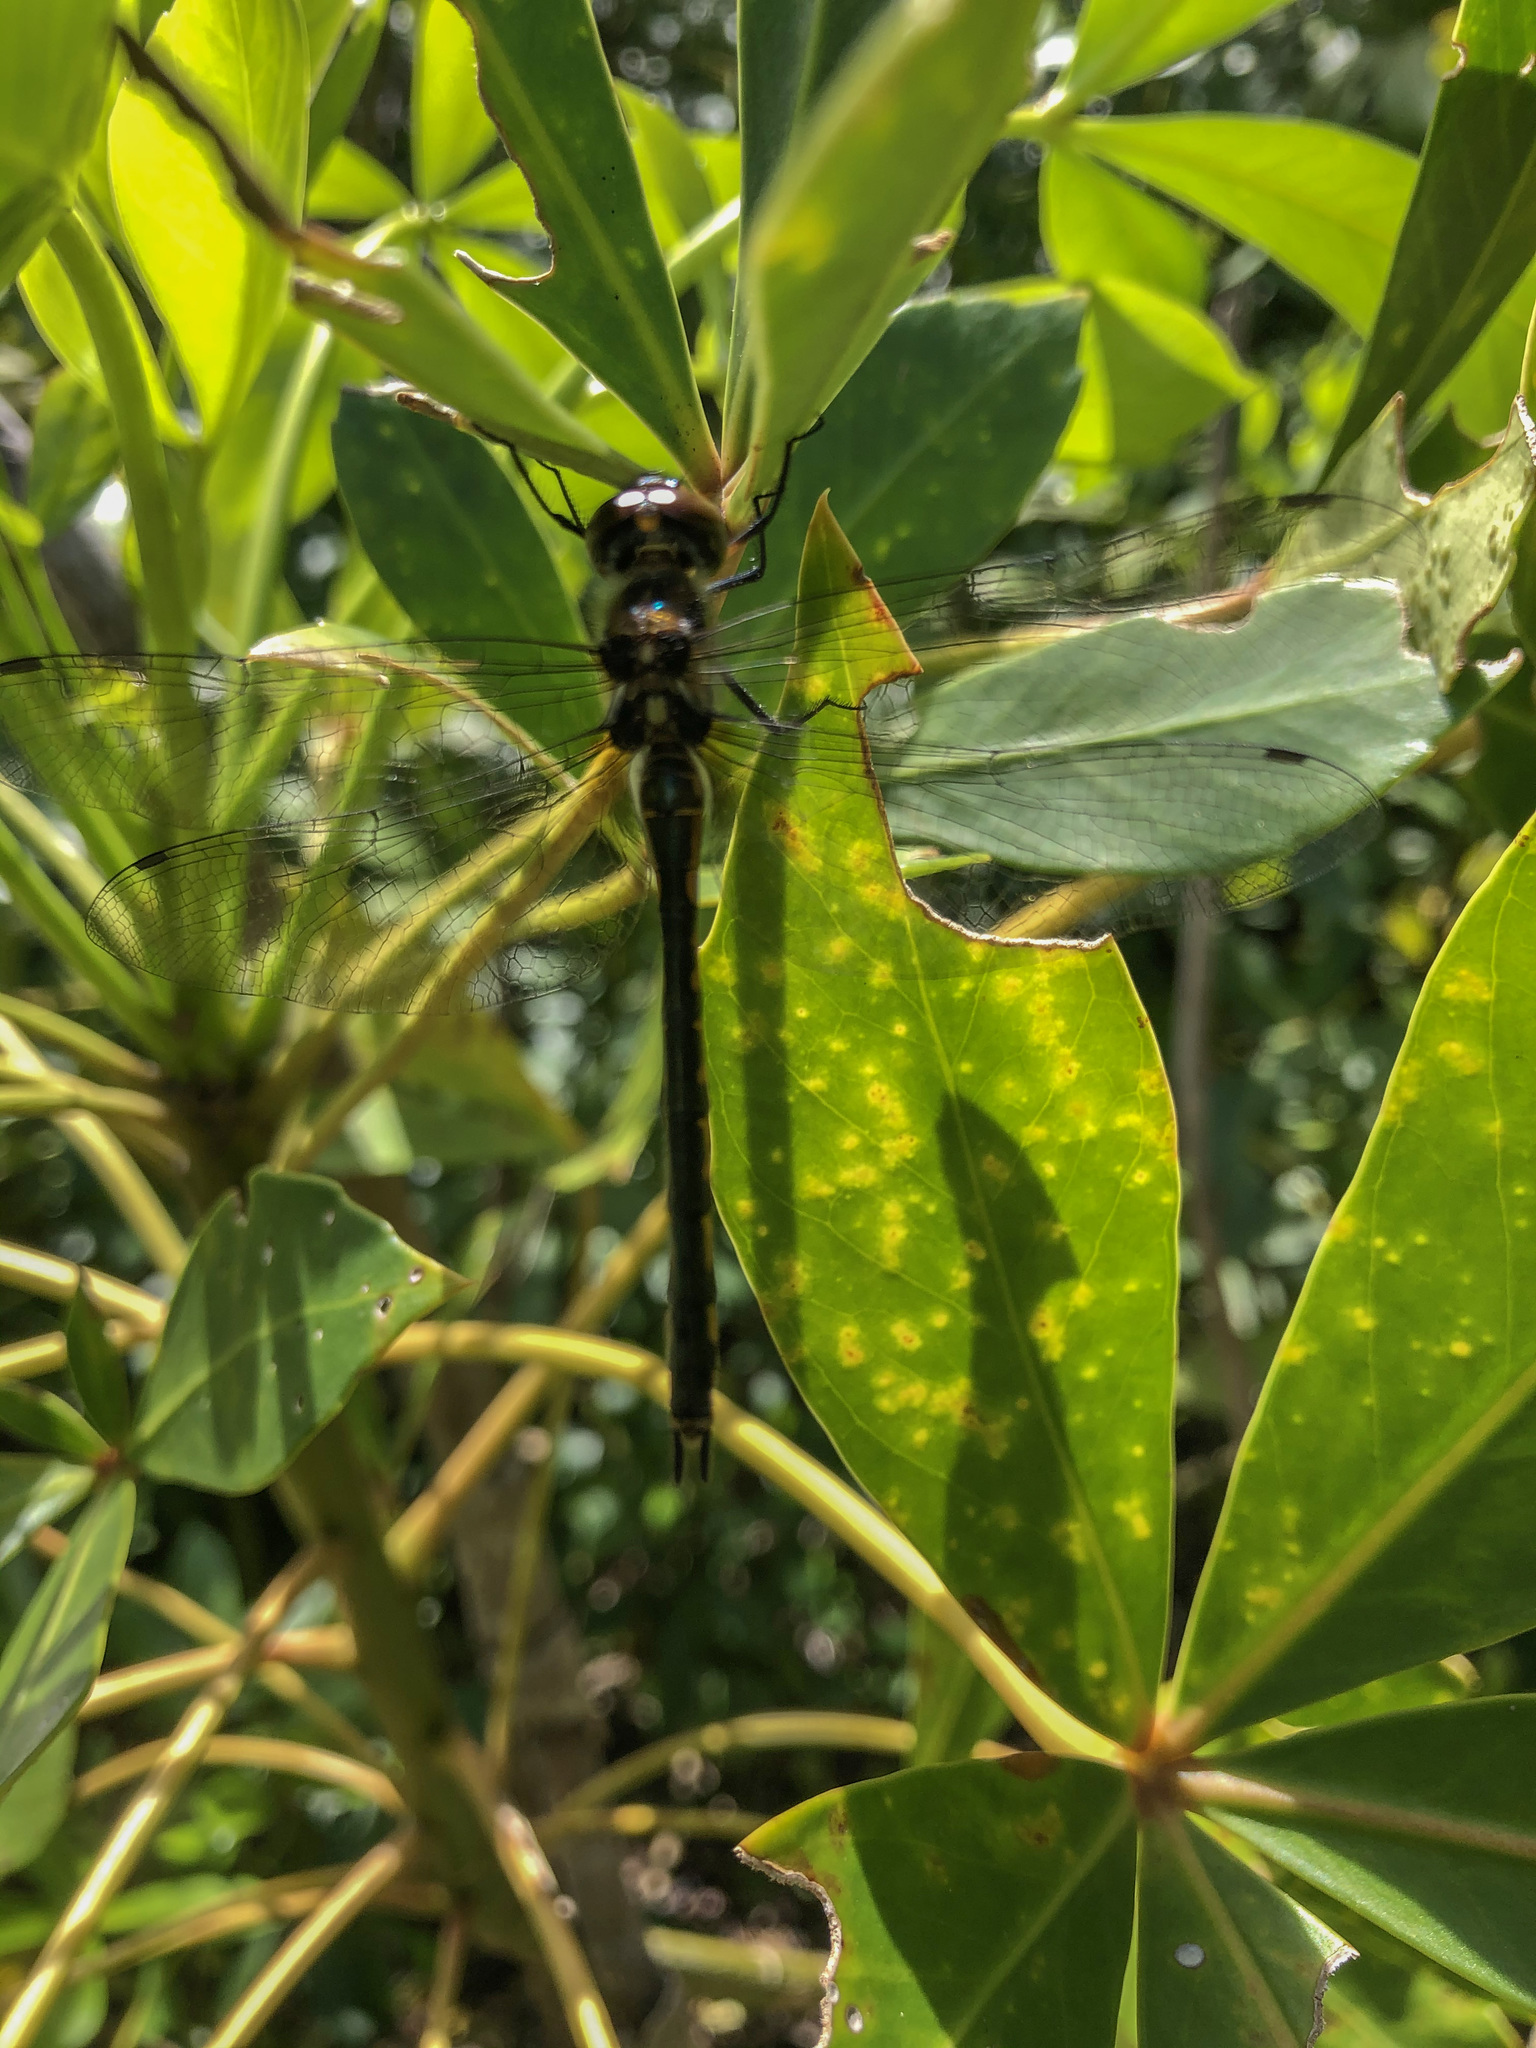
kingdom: Animalia
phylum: Arthropoda
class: Insecta
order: Odonata
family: Corduliidae
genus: Hemicordulia
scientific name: Hemicordulia australiae
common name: Sentry dragonfly
